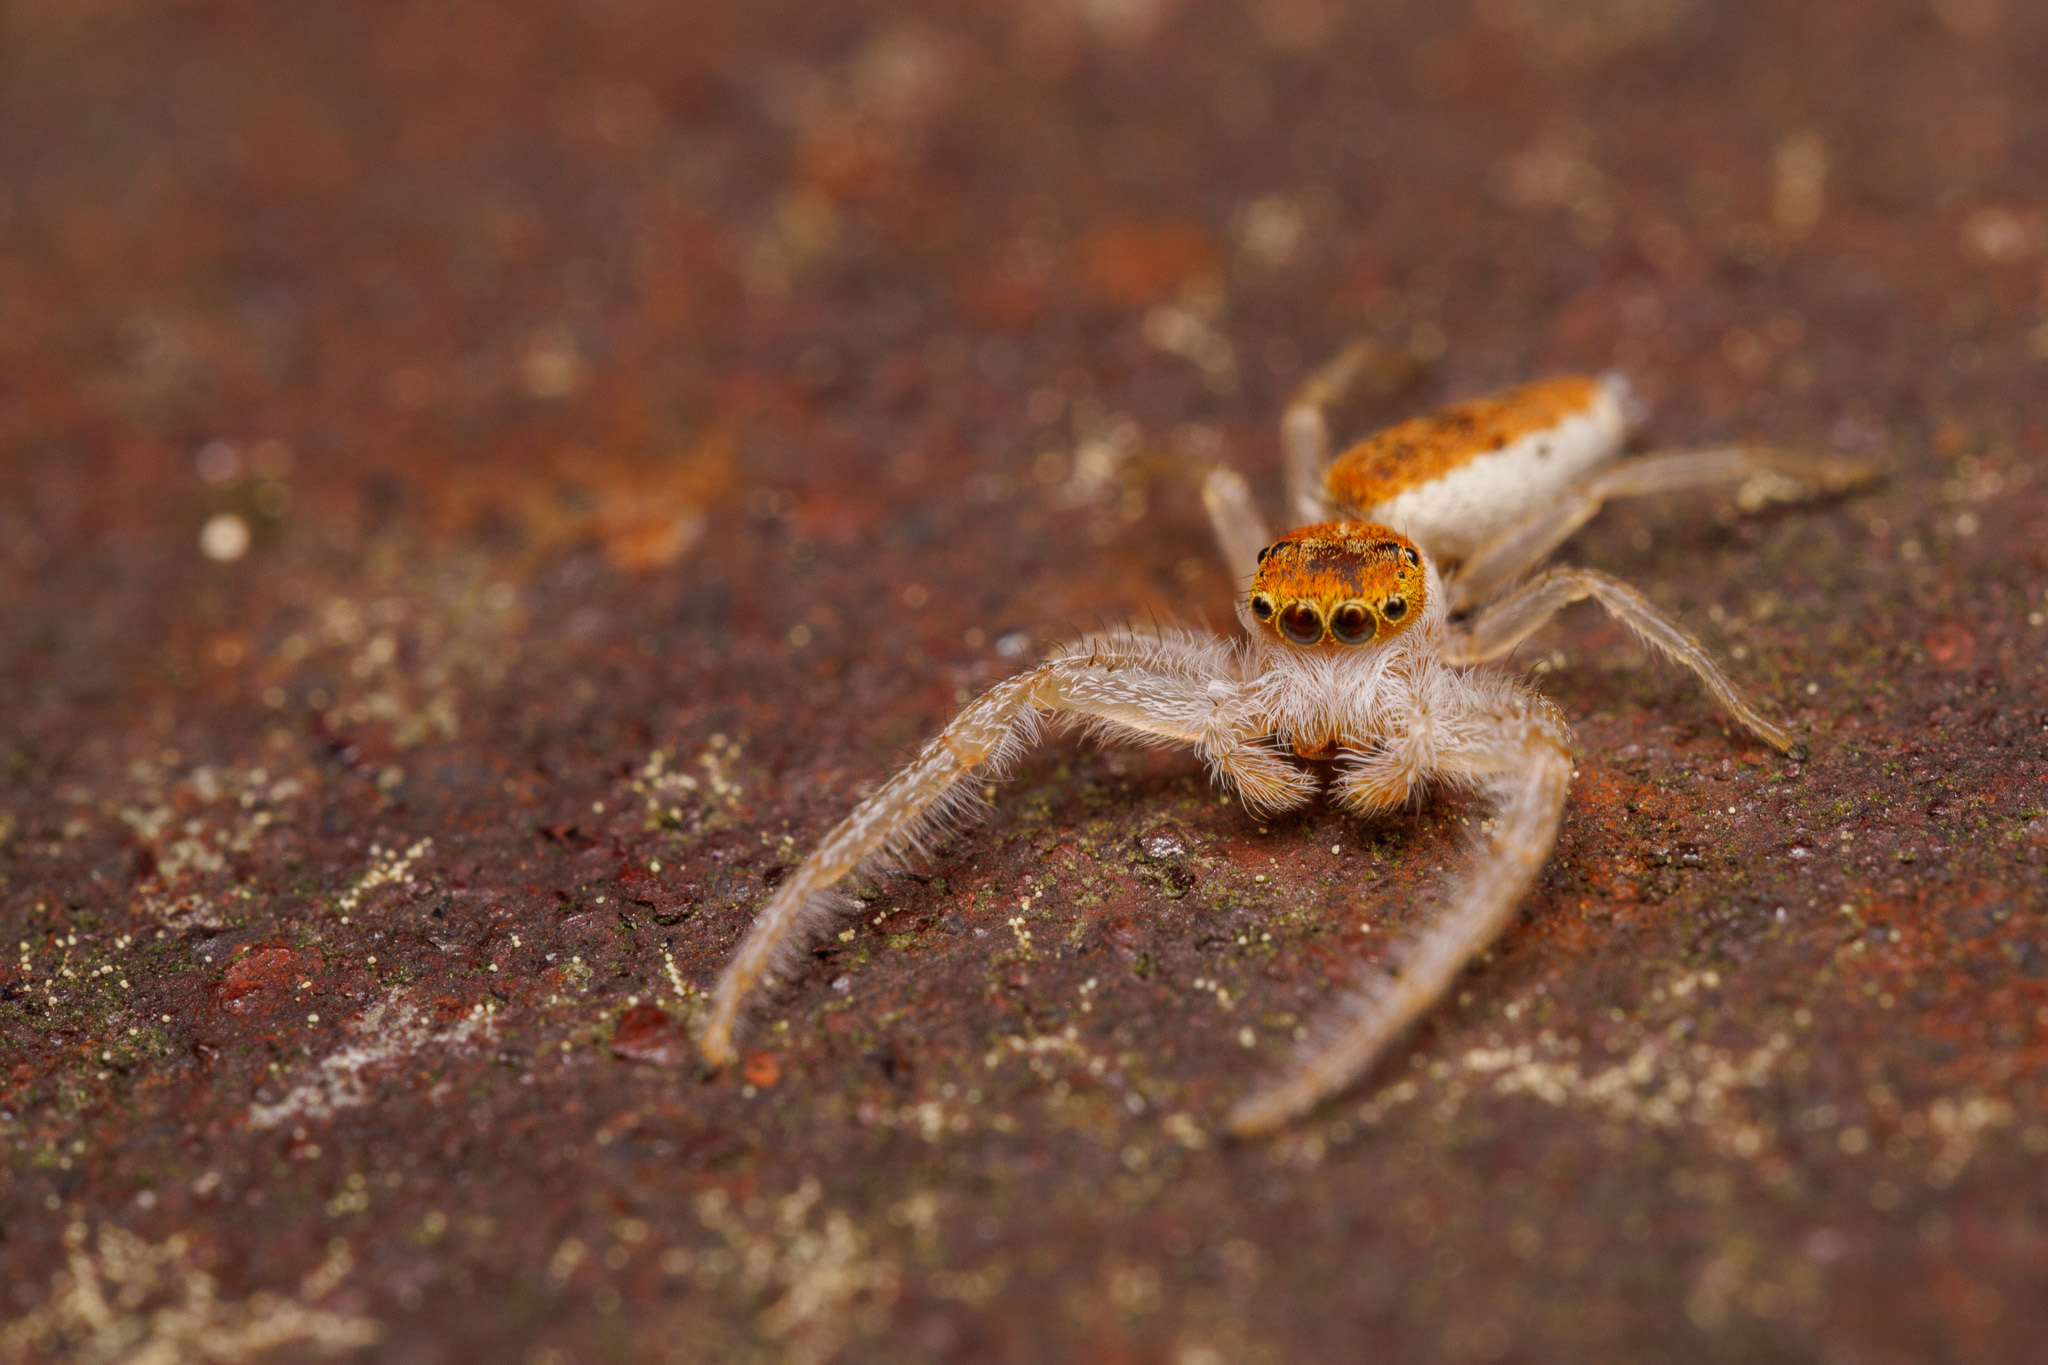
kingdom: Animalia
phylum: Arthropoda
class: Arachnida
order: Araneae
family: Salticidae
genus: Hentzia
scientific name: Hentzia mitrata
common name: White-jawed jumping spider
